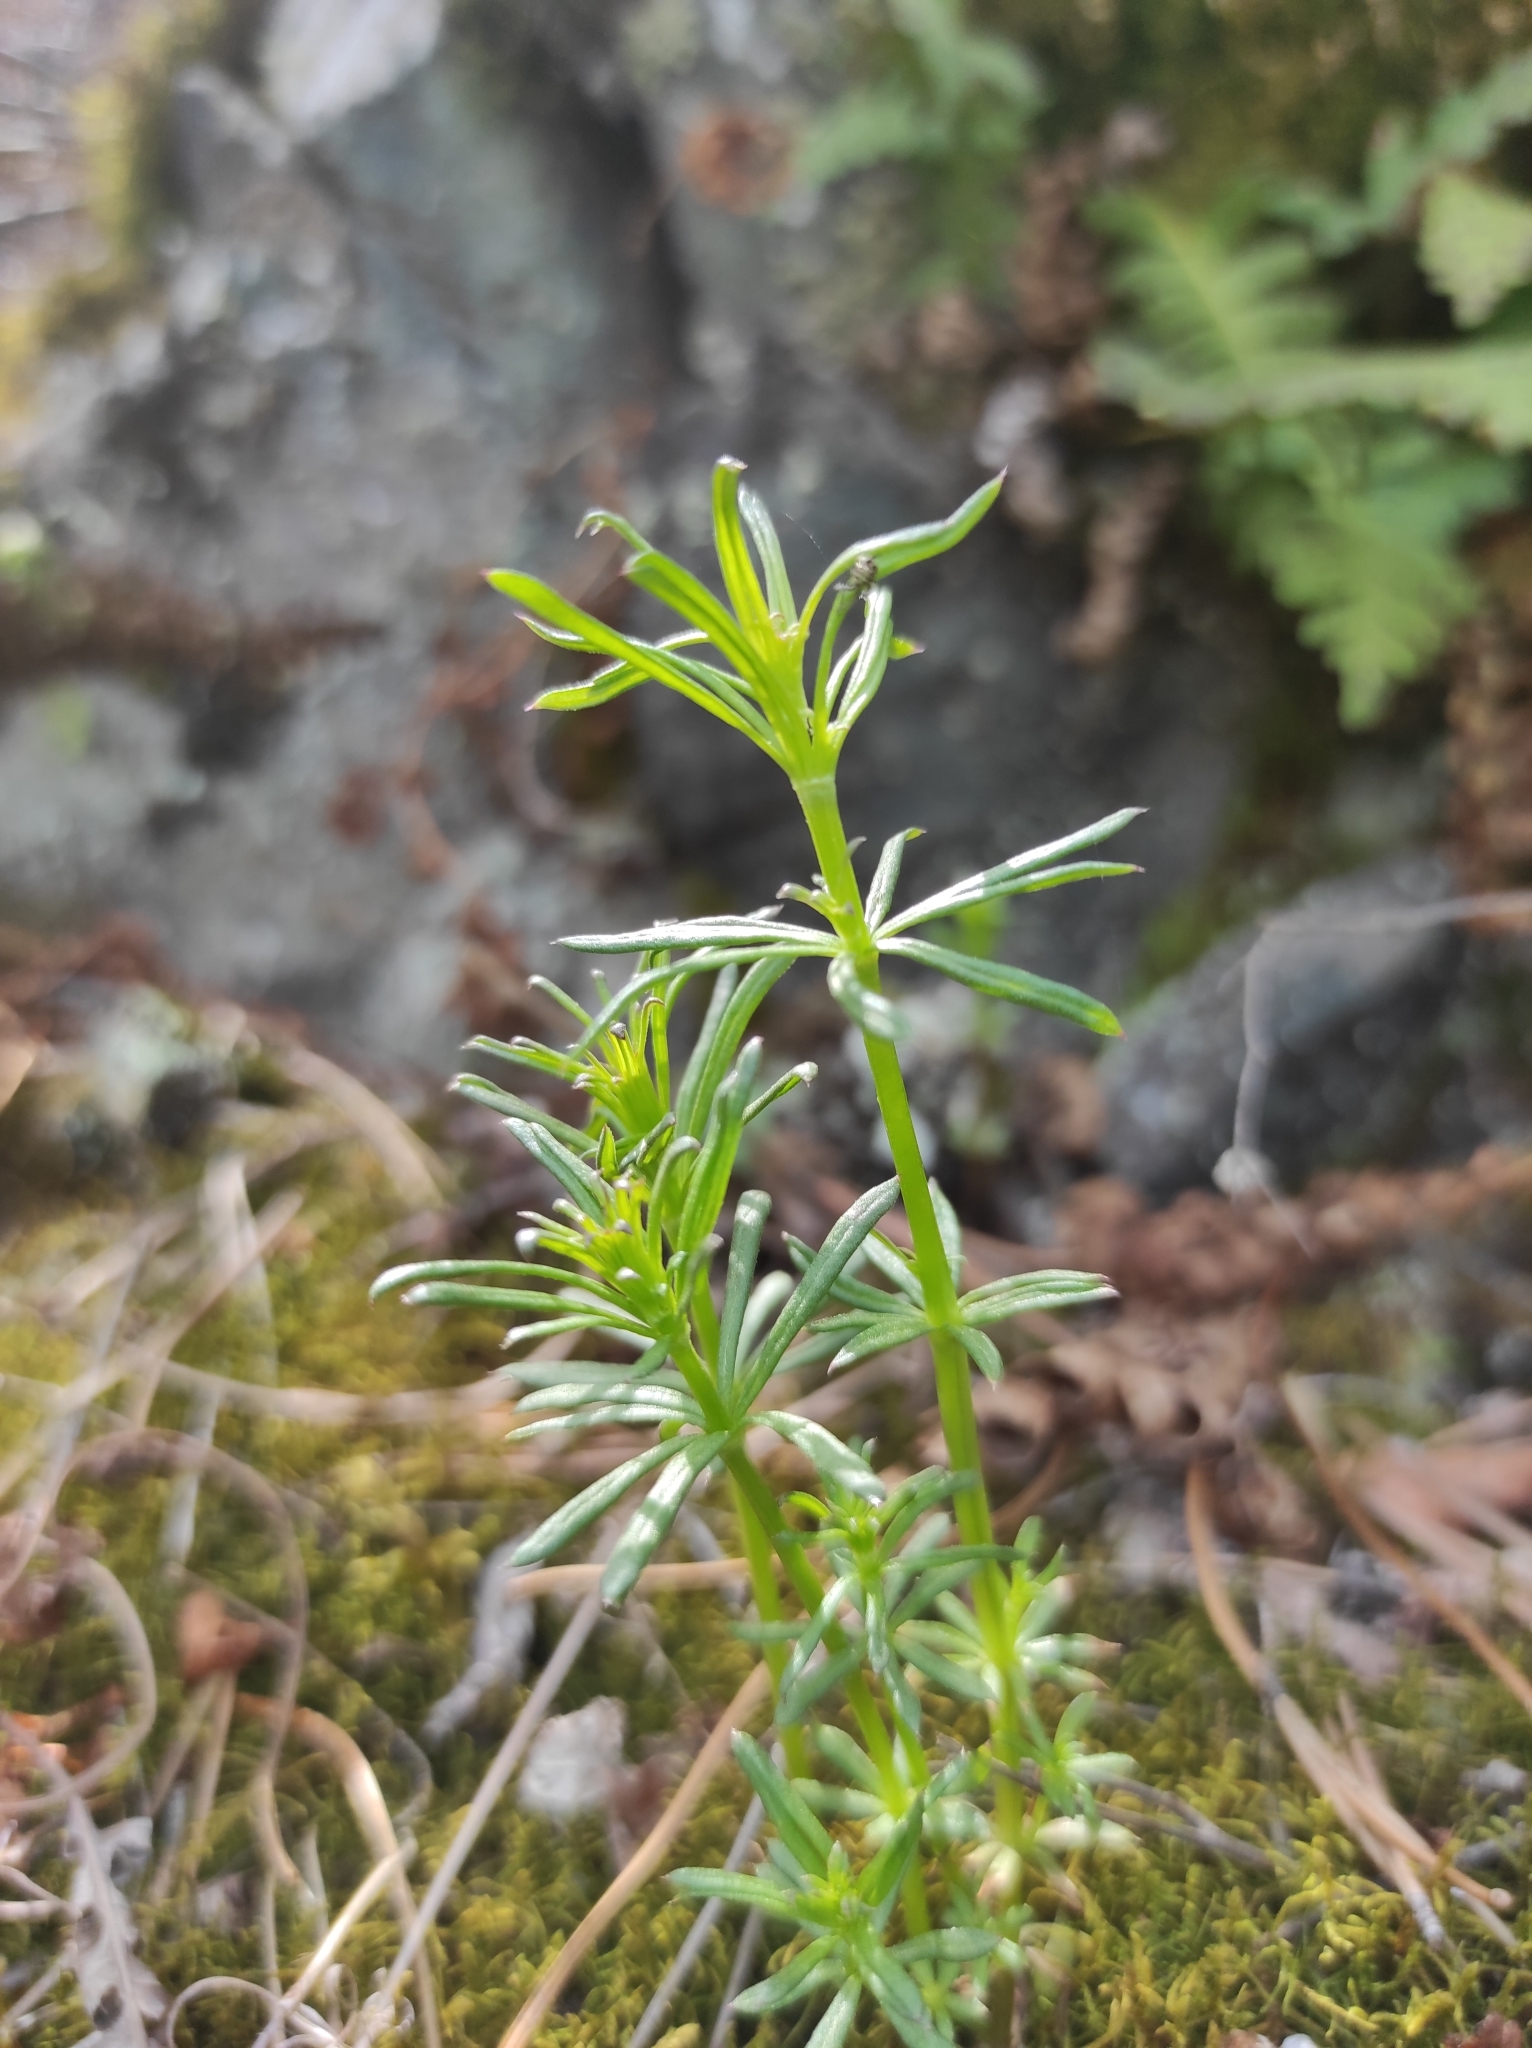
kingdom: Plantae
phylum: Tracheophyta
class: Magnoliopsida
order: Gentianales
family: Rubiaceae
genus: Galium
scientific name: Galium verum
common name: Lady's bedstraw
